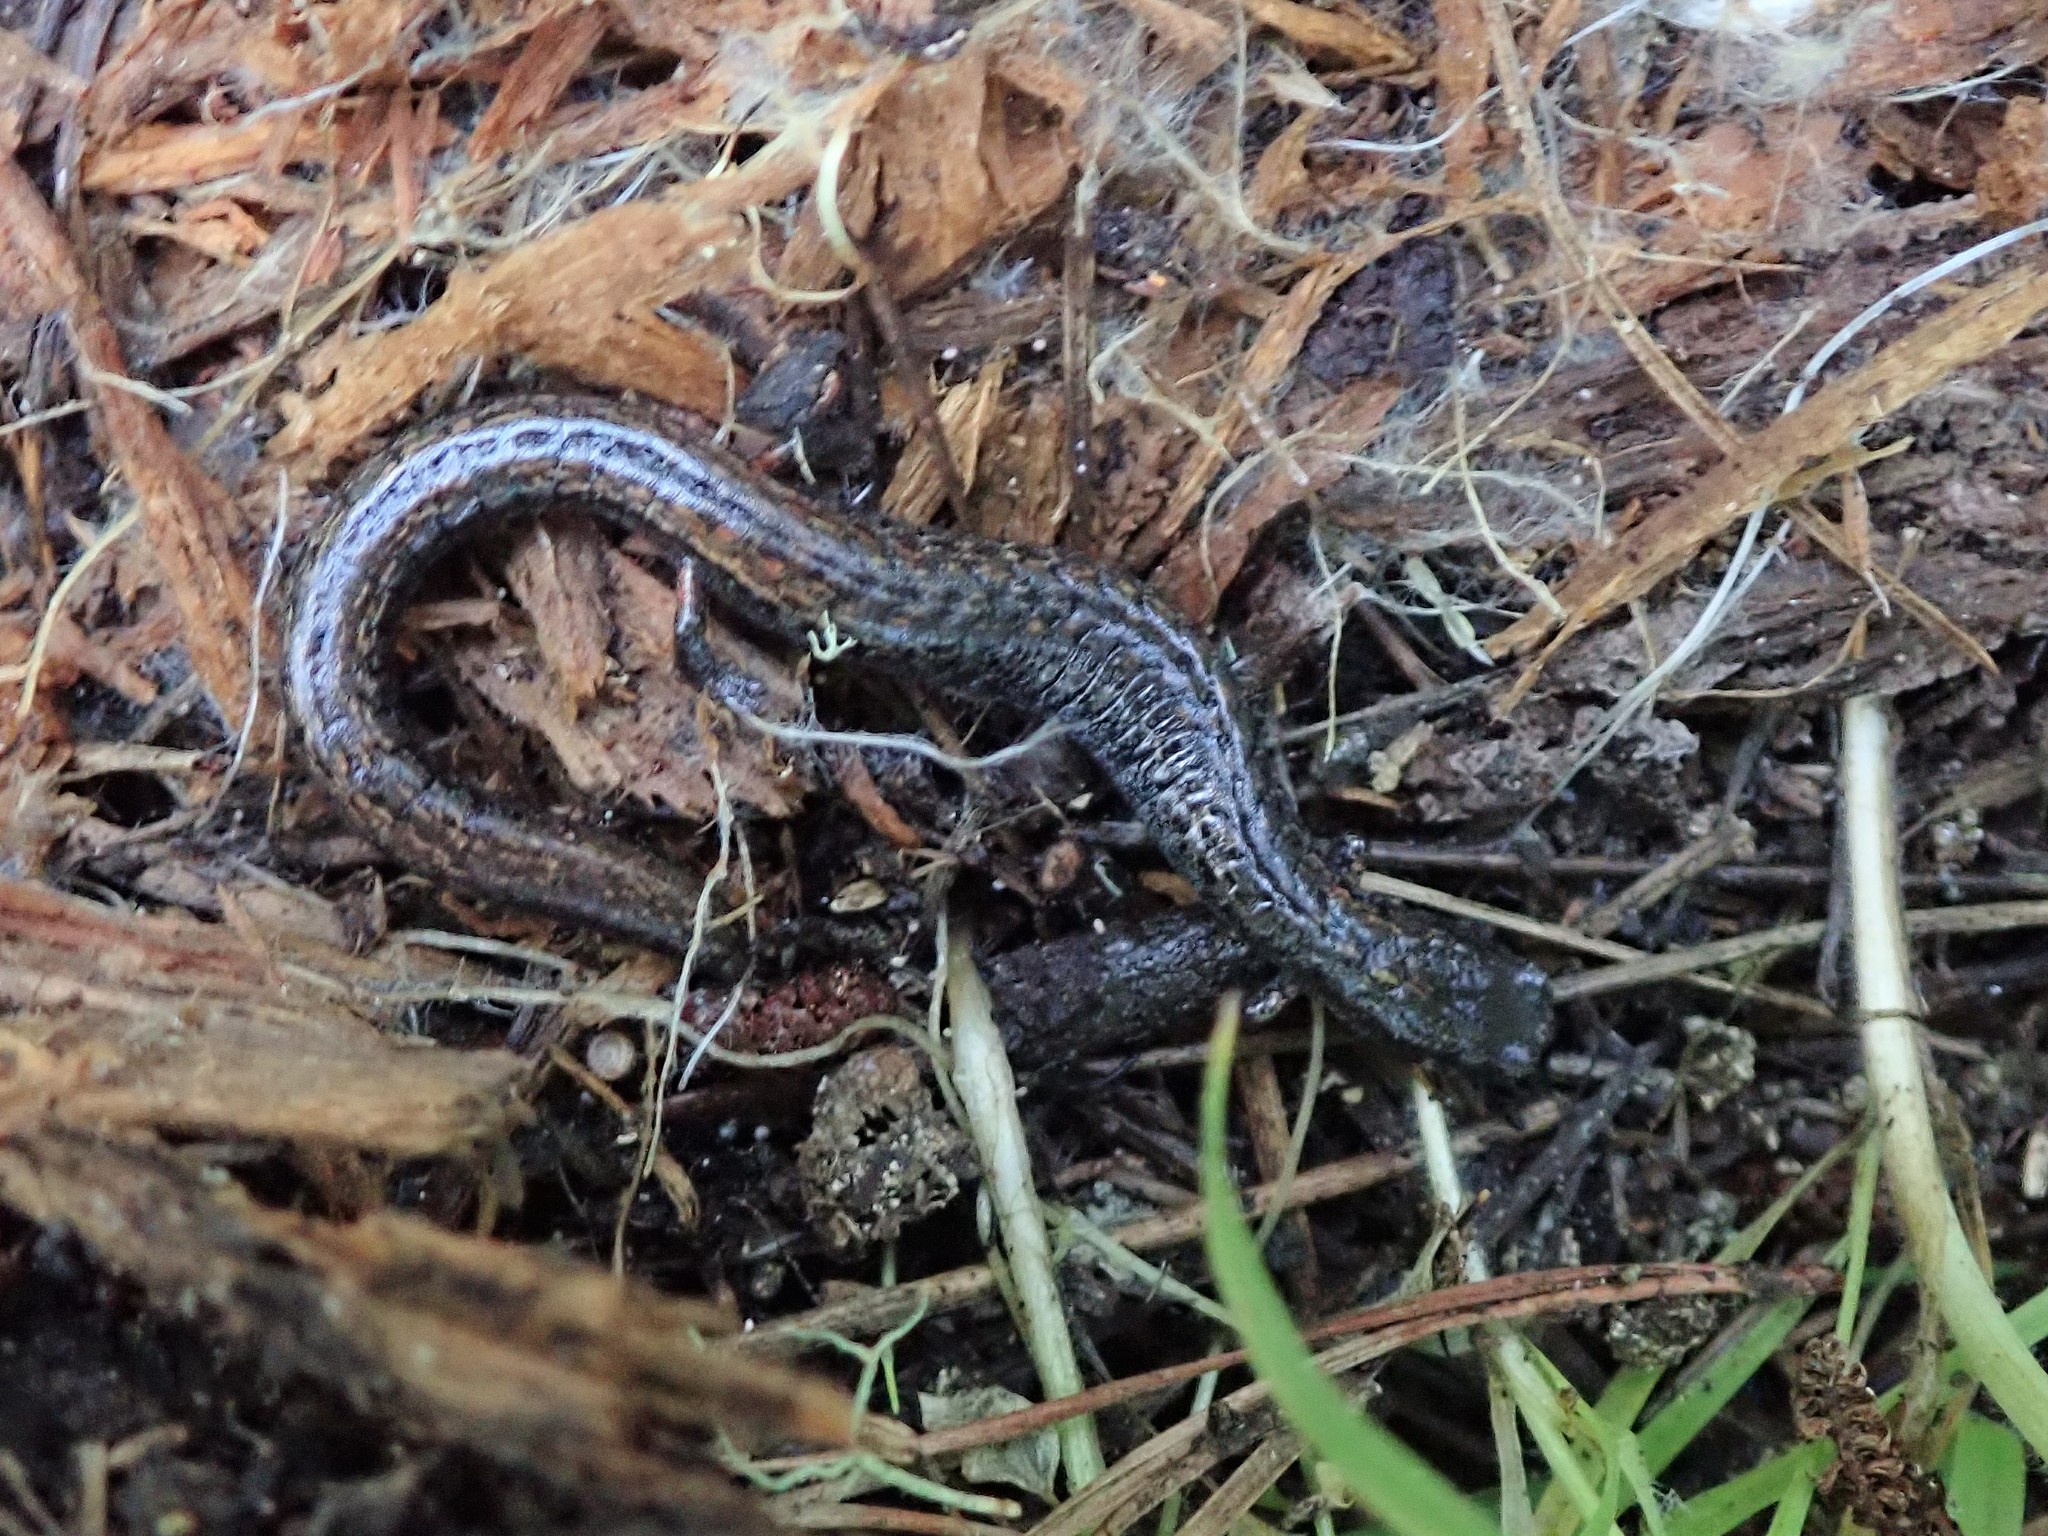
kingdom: Animalia
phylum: Chordata
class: Amphibia
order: Caudata
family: Plethodontidae
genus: Batrachoseps
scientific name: Batrachoseps attenuatus
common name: California slender salamander
